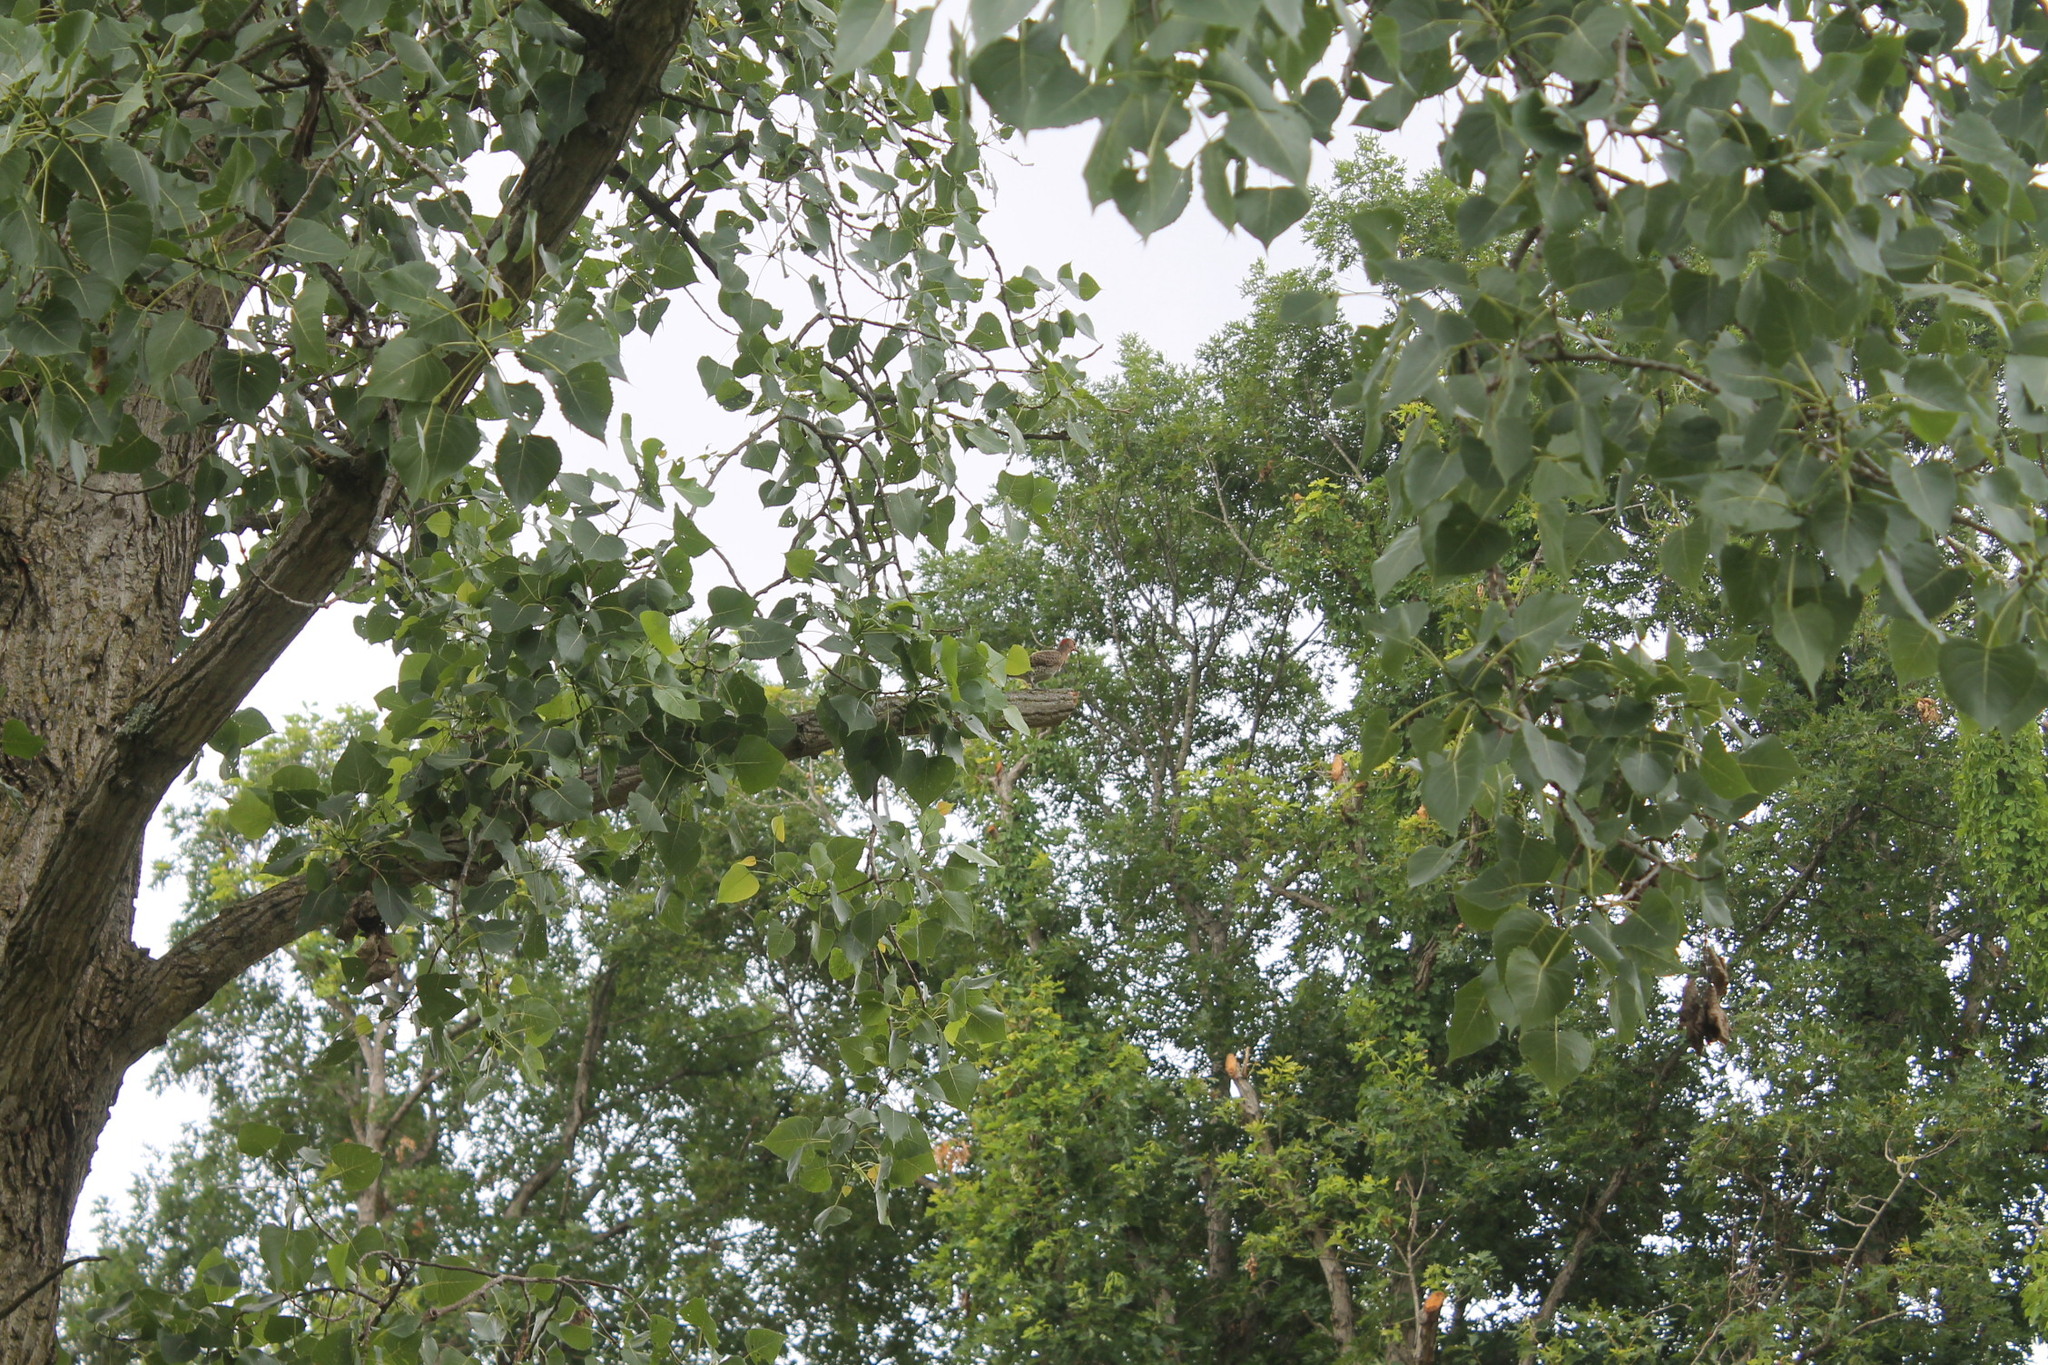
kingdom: Animalia
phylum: Chordata
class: Aves
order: Piciformes
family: Picidae
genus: Colaptes
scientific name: Colaptes auratus
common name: Northern flicker
